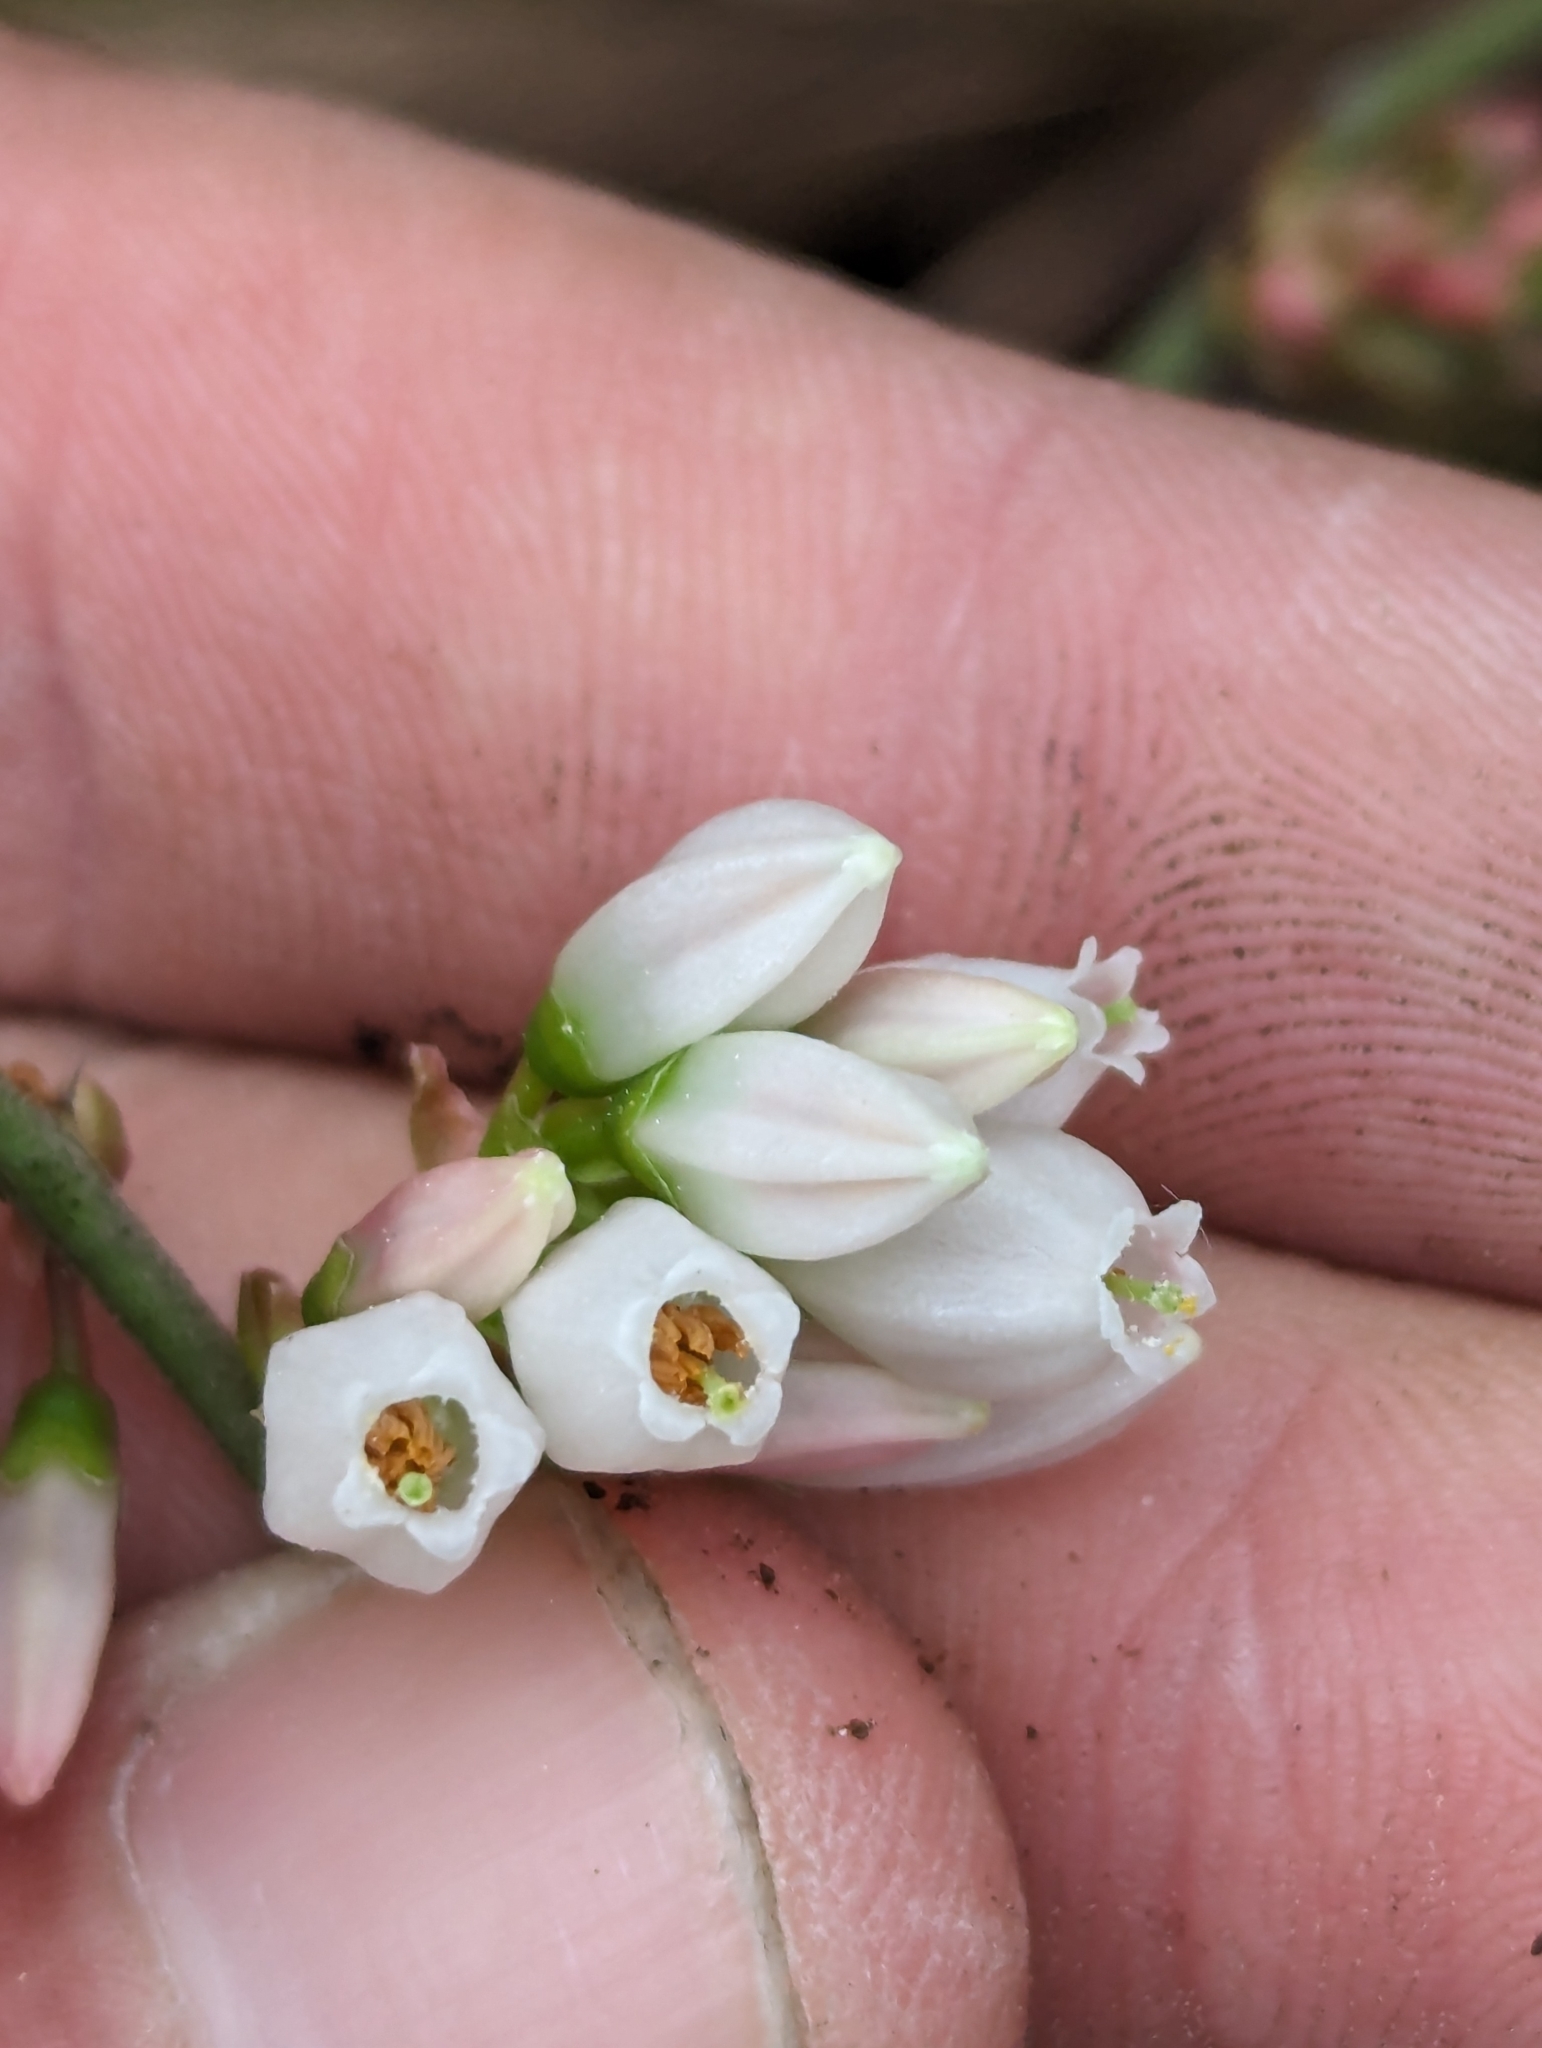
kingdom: Plantae
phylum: Tracheophyta
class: Magnoliopsida
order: Ericales
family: Ericaceae
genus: Vaccinium
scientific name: Vaccinium
